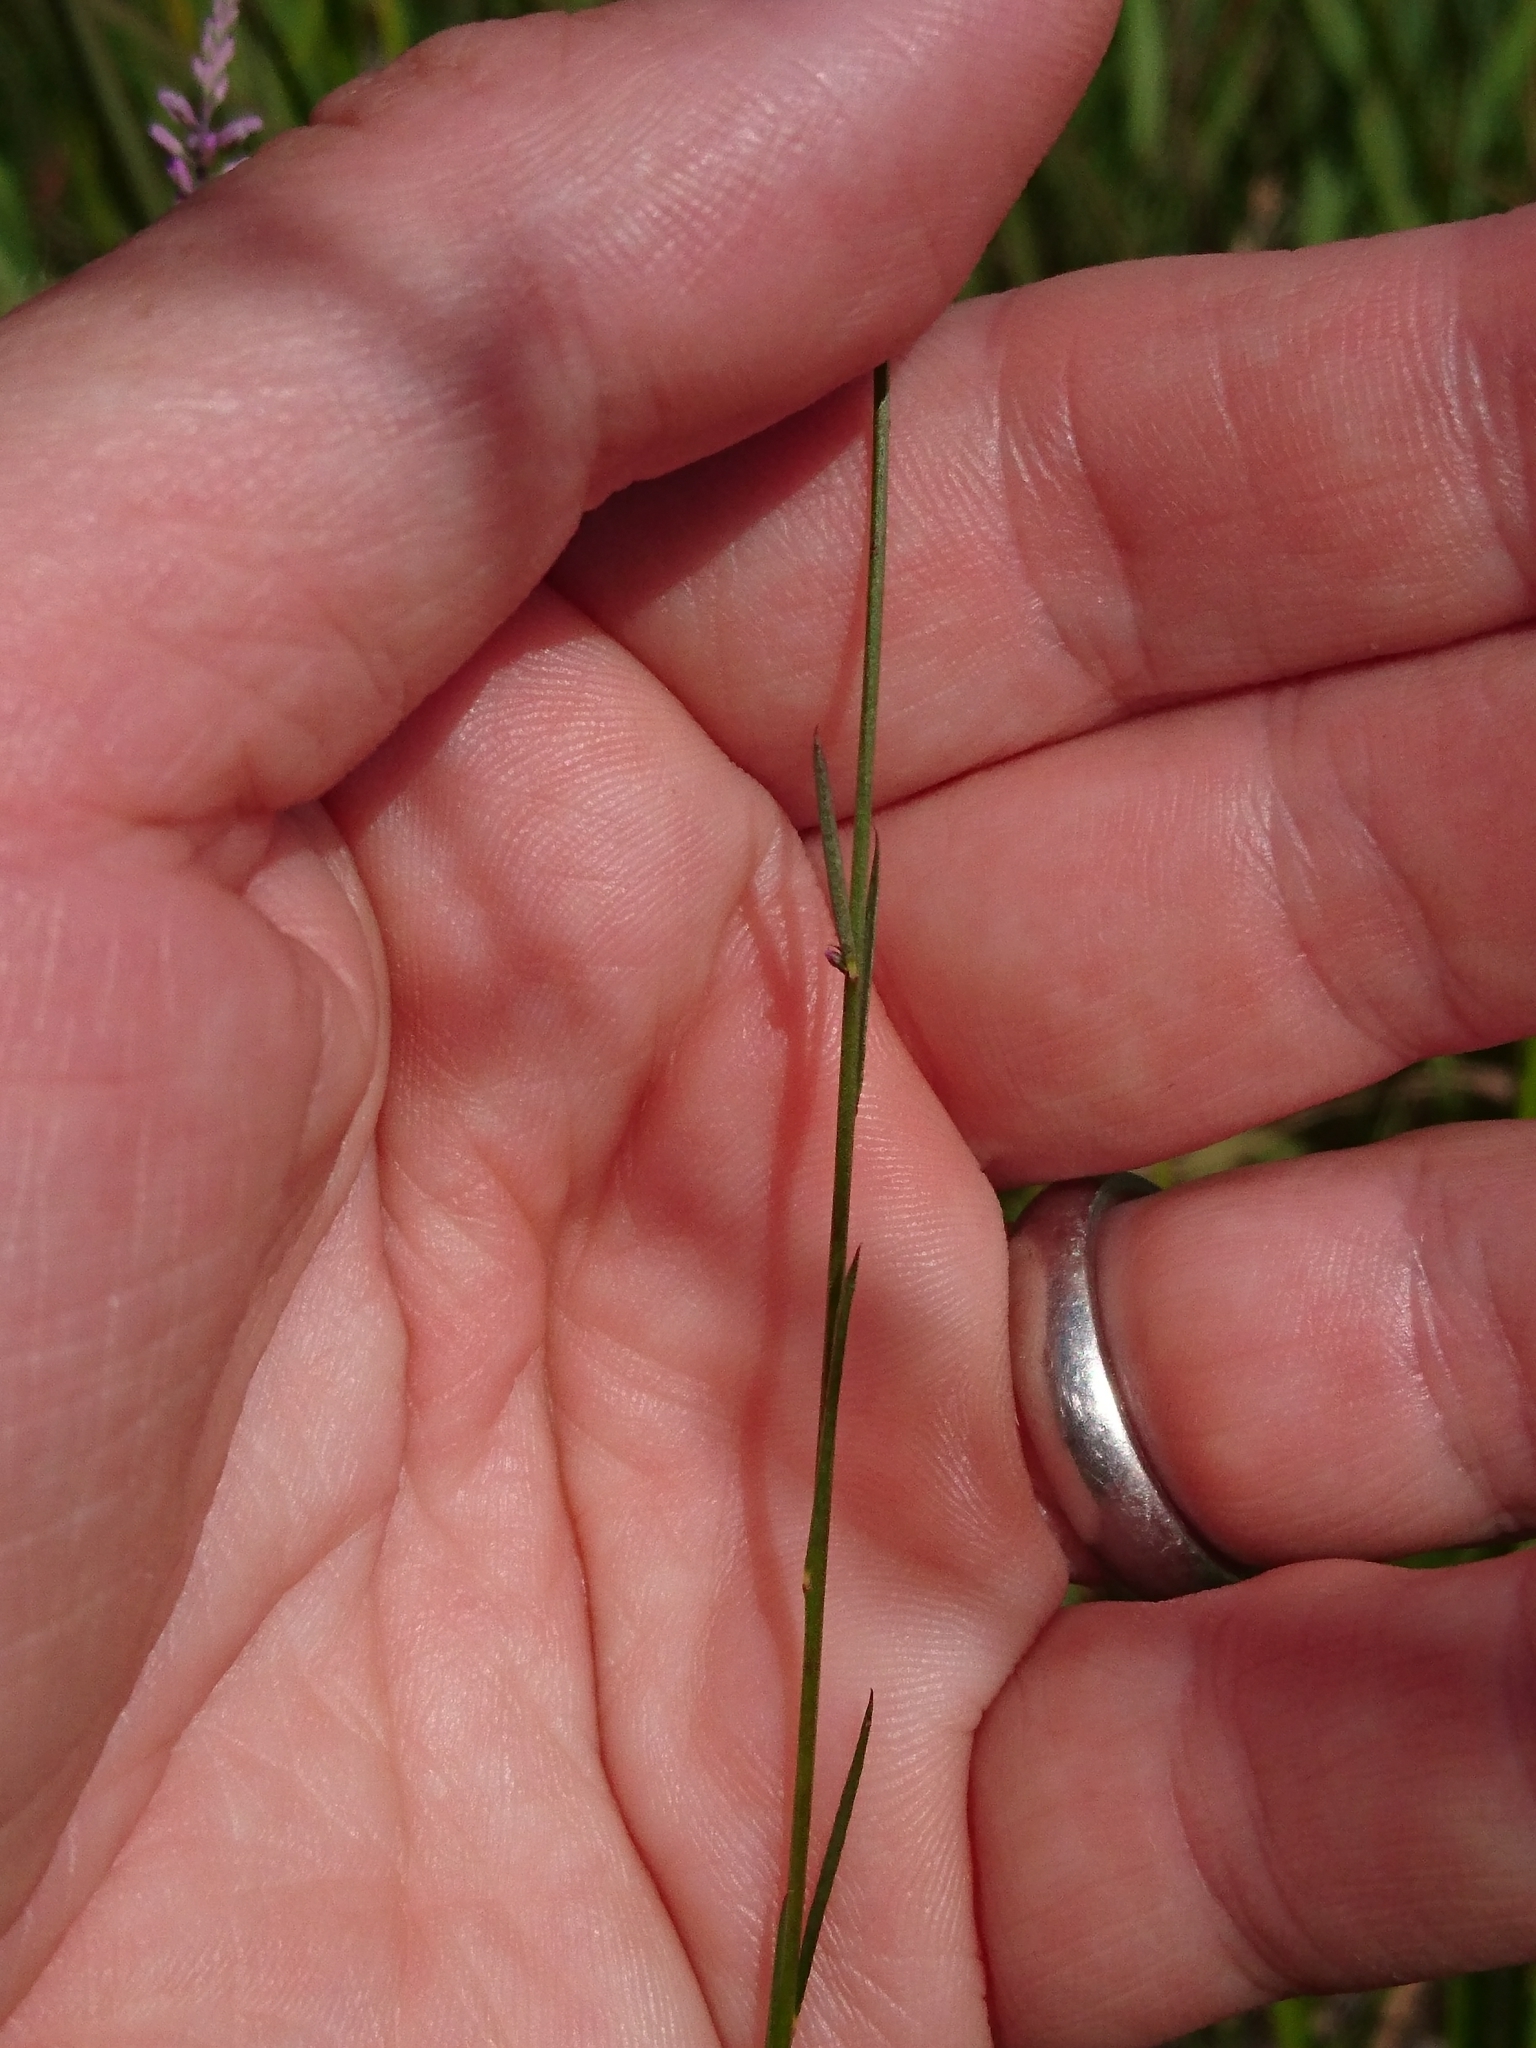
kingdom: Plantae
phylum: Tracheophyta
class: Magnoliopsida
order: Fabales
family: Polygalaceae
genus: Polygala
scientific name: Polygala tenella
